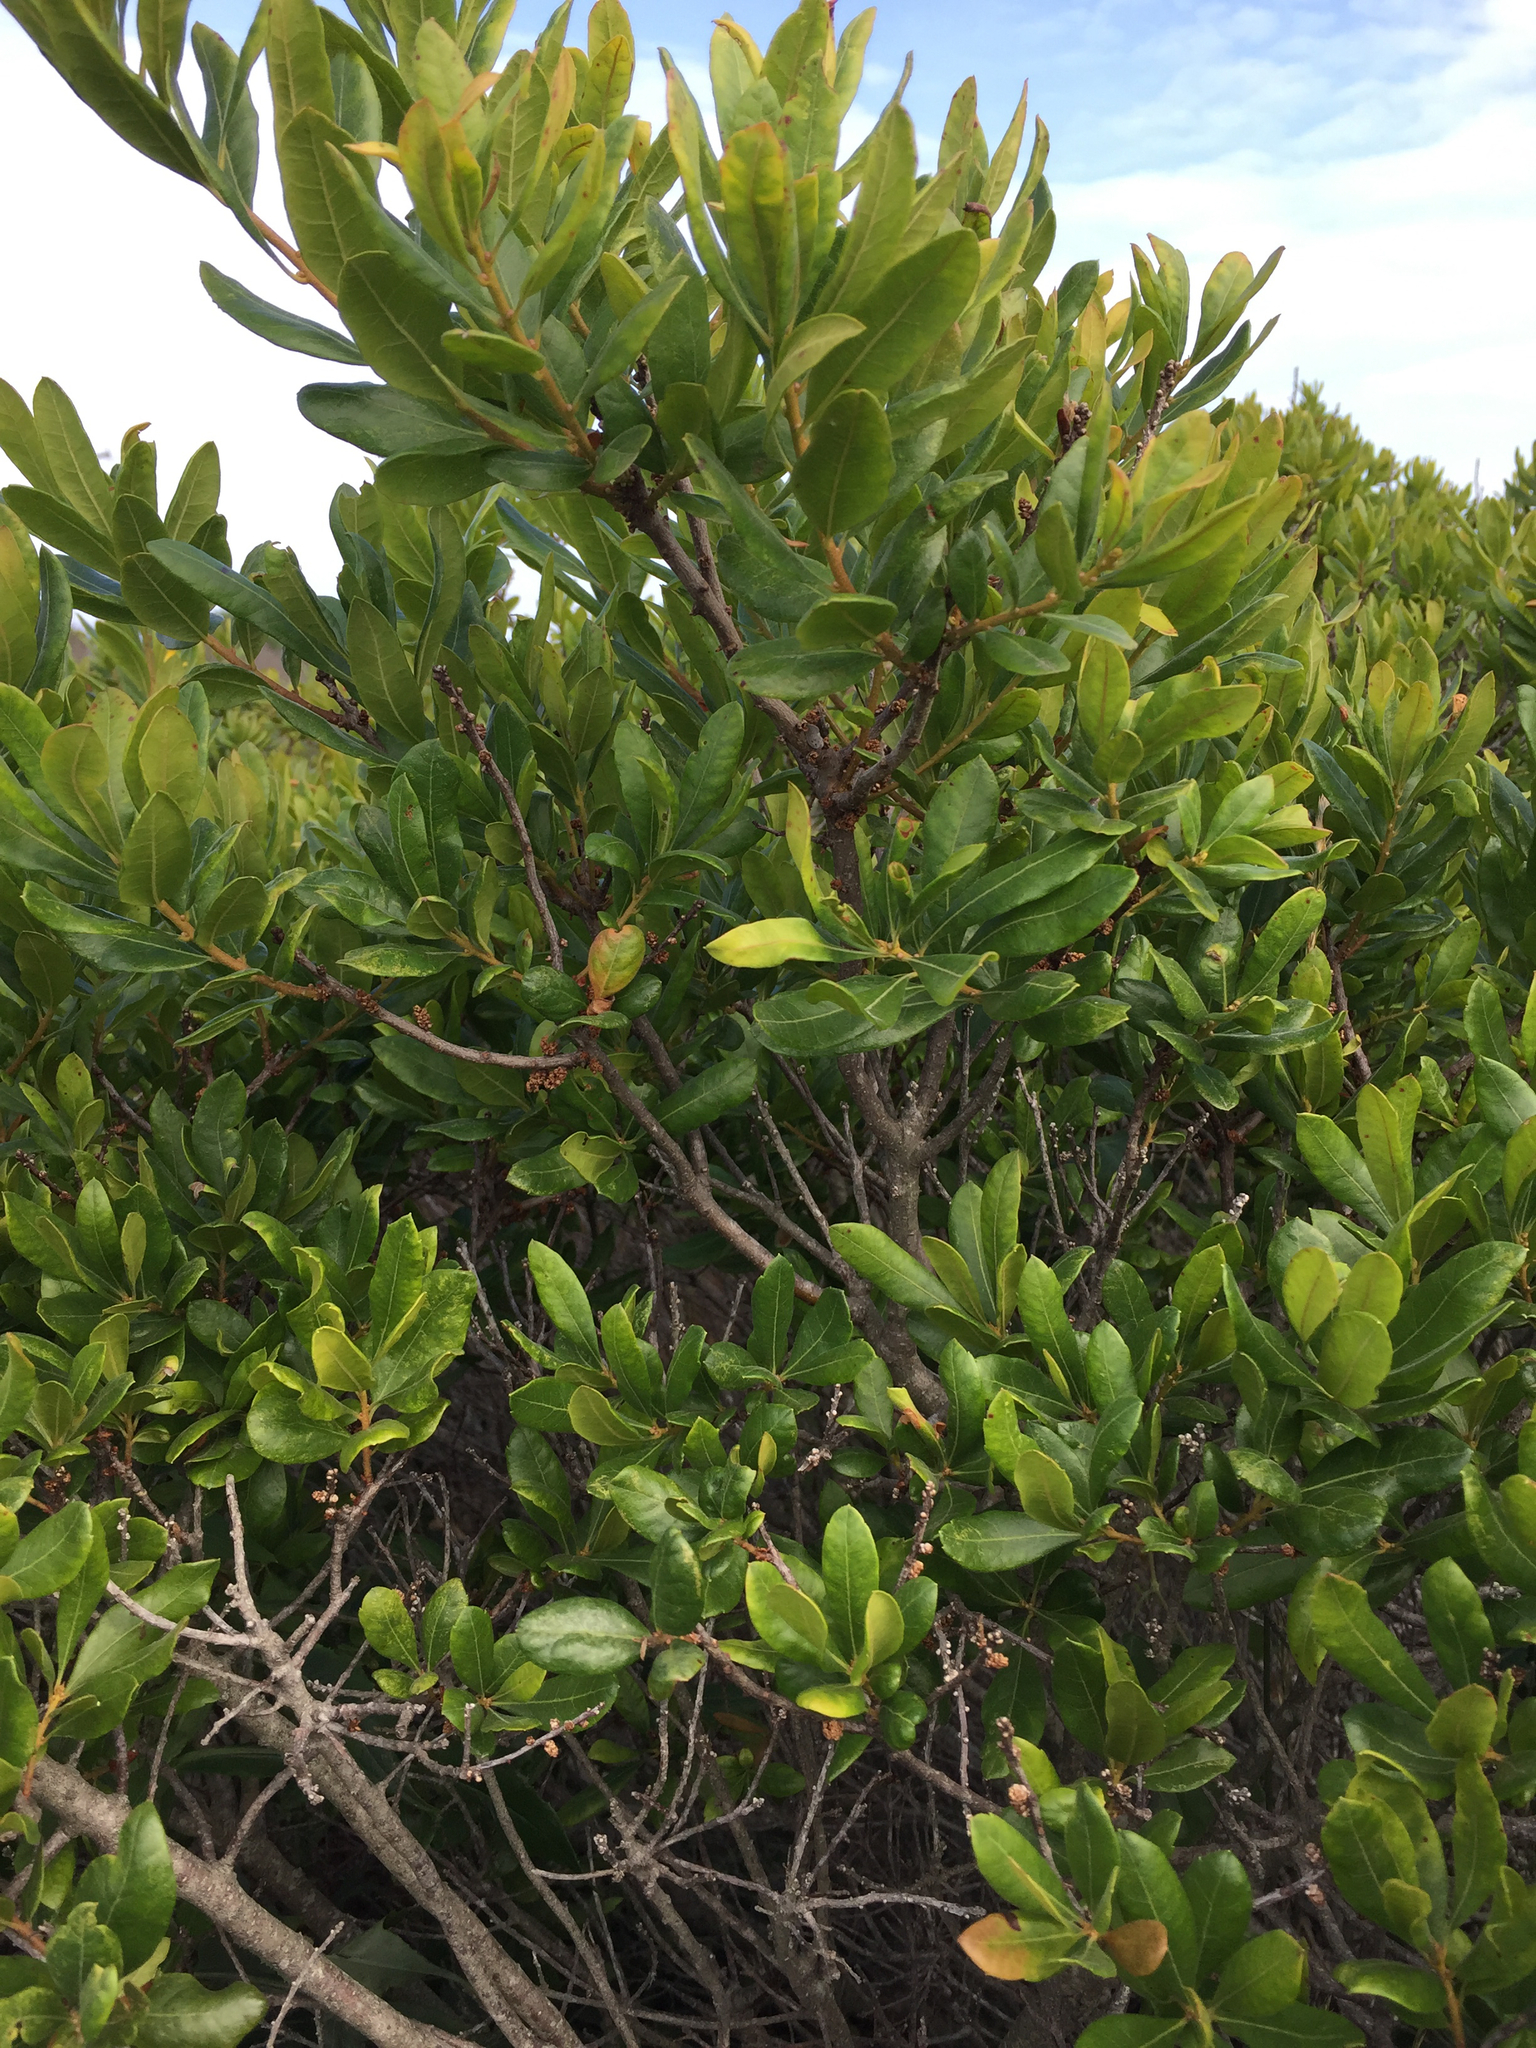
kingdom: Plantae
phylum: Tracheophyta
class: Magnoliopsida
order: Fagales
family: Myricaceae
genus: Morella
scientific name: Morella pensylvanica
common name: Northern bayberry
